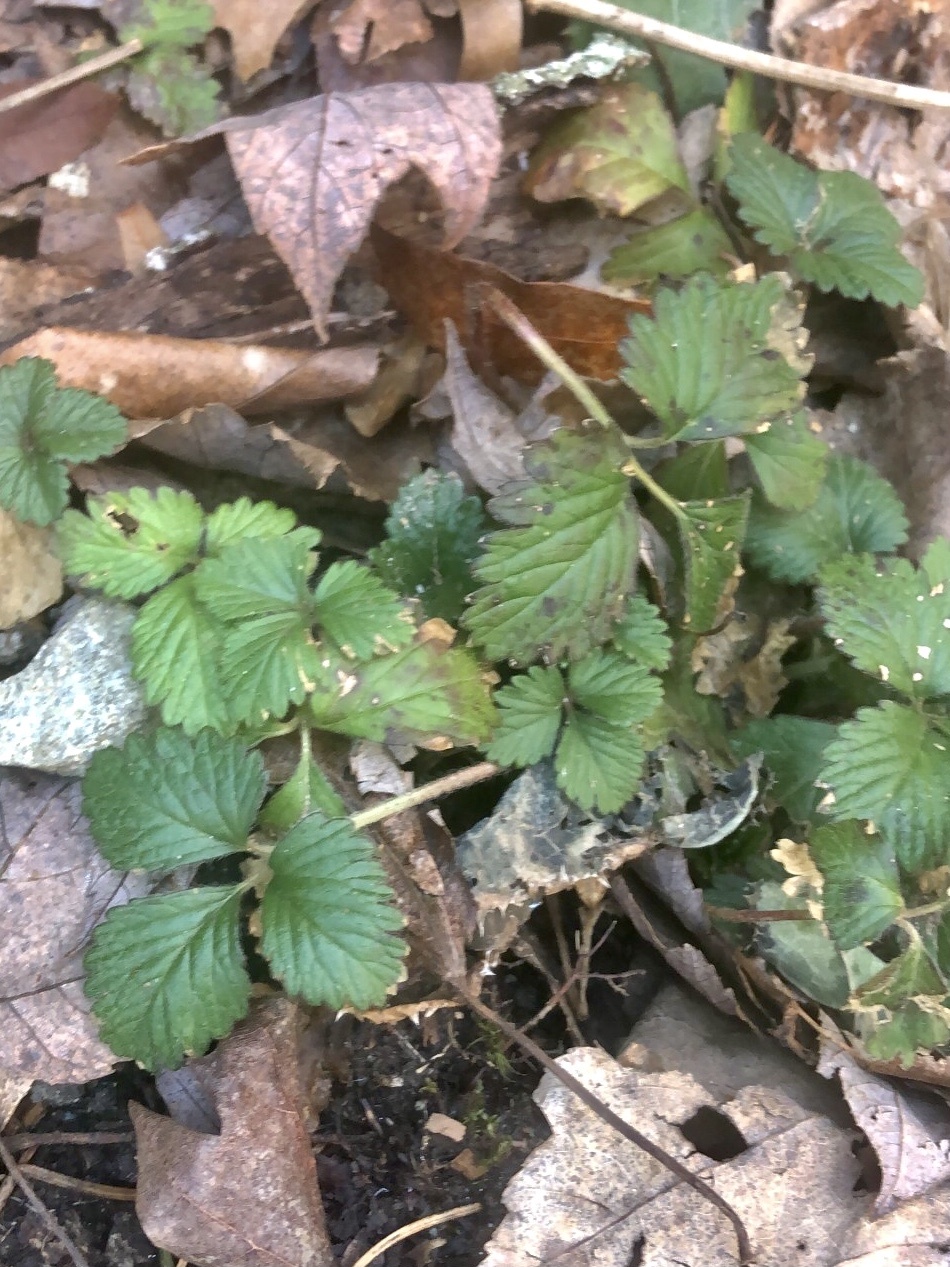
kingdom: Plantae
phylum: Tracheophyta
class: Magnoliopsida
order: Rosales
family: Rosaceae
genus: Potentilla
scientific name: Potentilla indica
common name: Yellow-flowered strawberry
